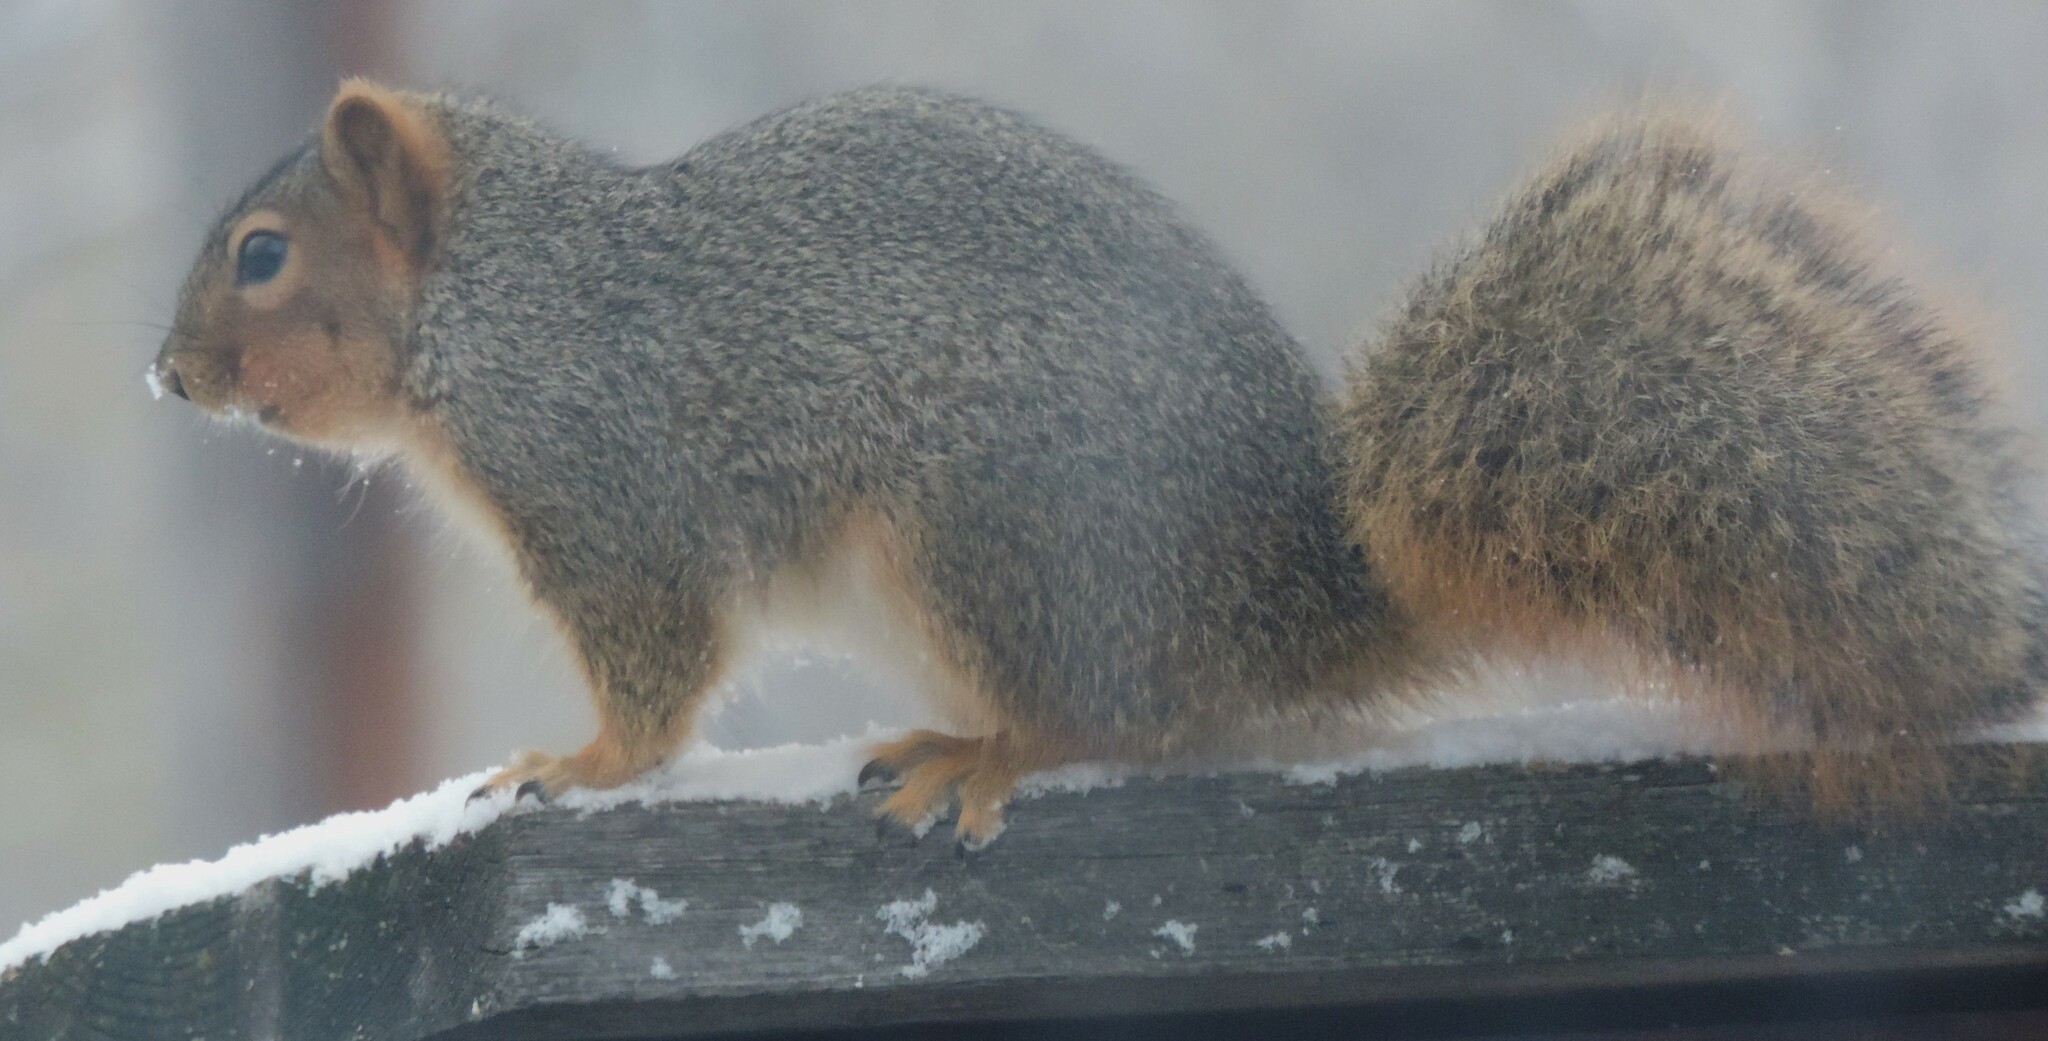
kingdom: Animalia
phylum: Chordata
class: Mammalia
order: Rodentia
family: Sciuridae
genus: Sciurus
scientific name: Sciurus niger
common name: Fox squirrel
